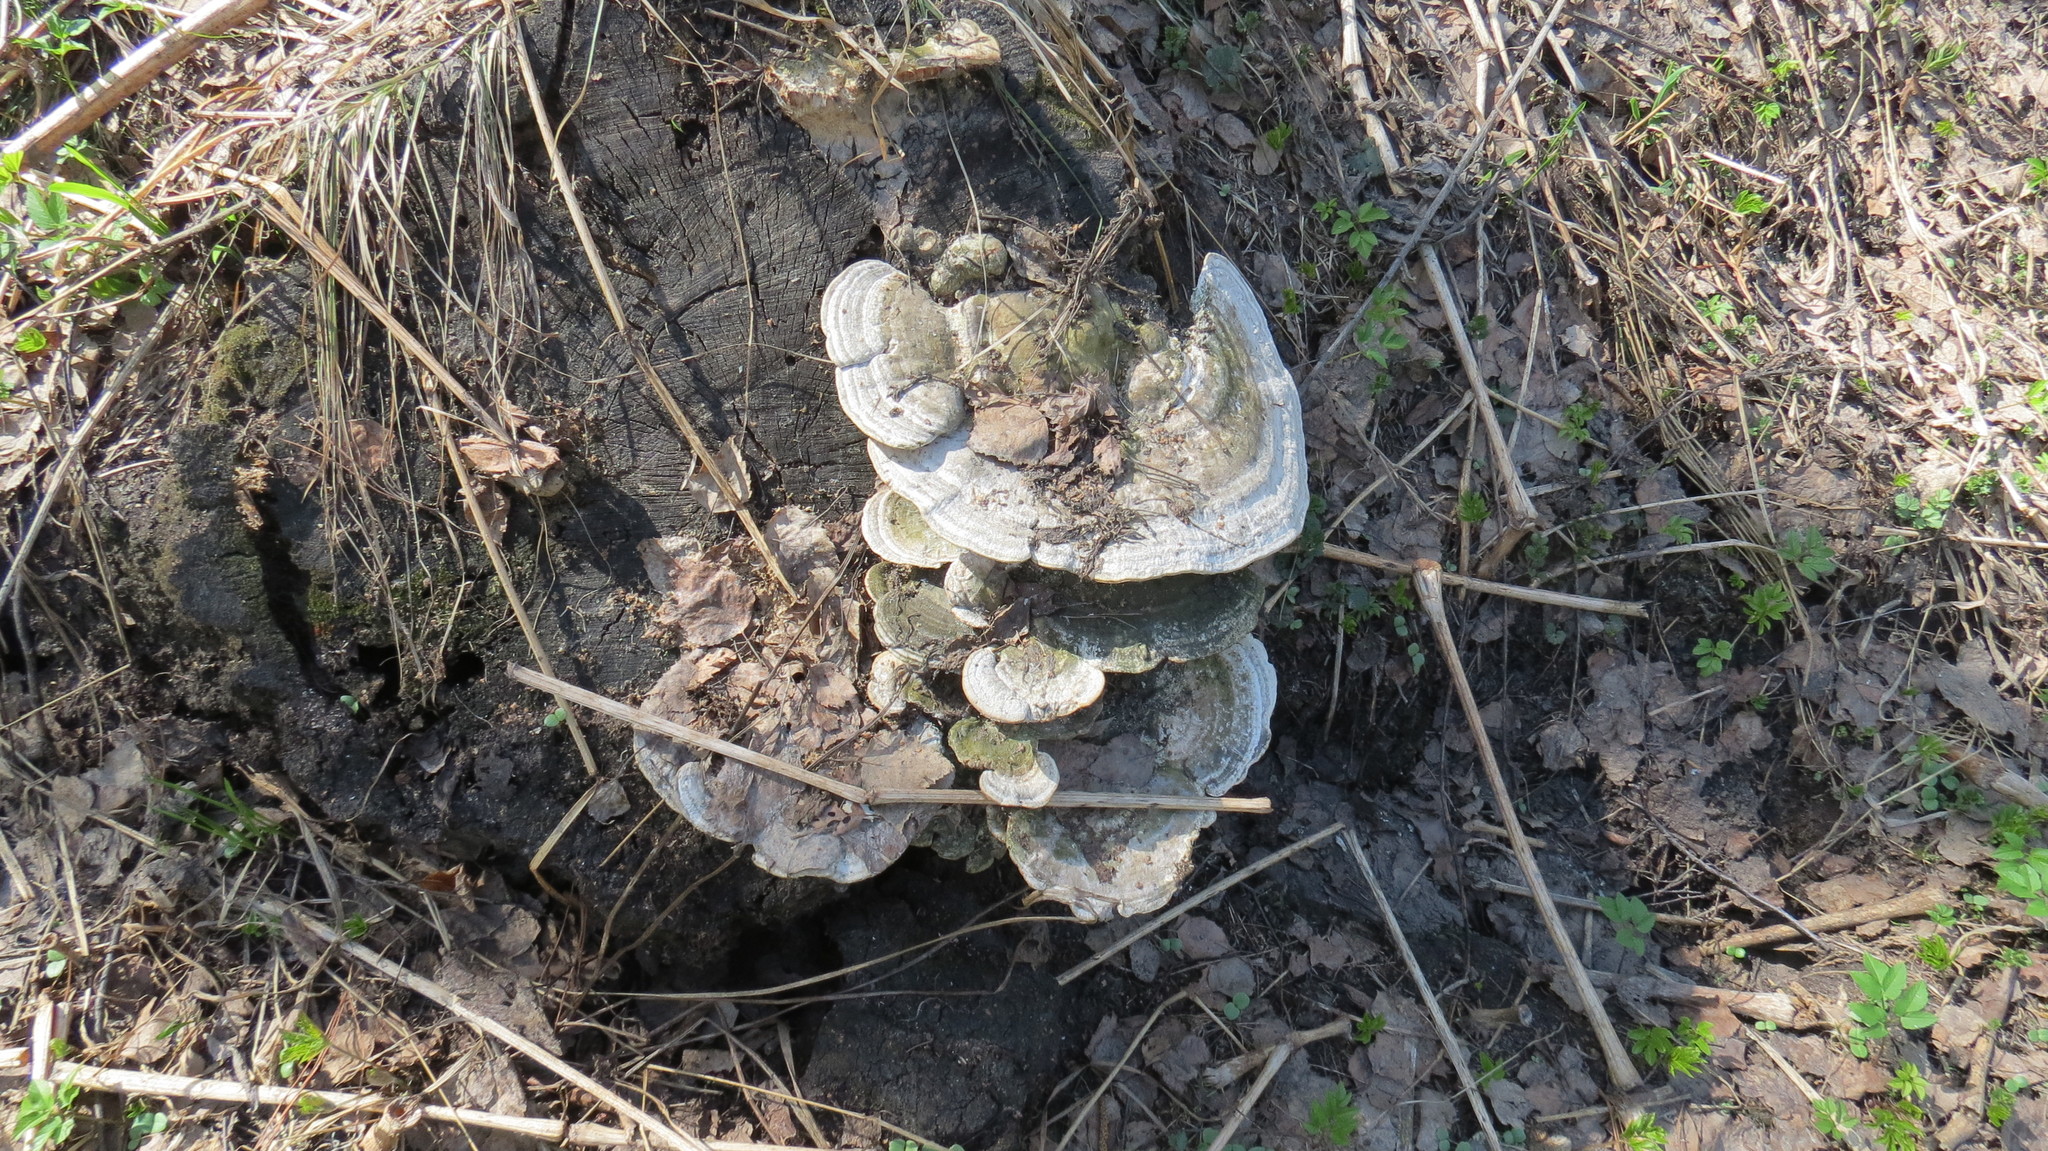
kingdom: Fungi
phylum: Basidiomycota
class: Agaricomycetes
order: Polyporales
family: Polyporaceae
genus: Trametes
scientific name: Trametes gibbosa
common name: Lumpy bracket
